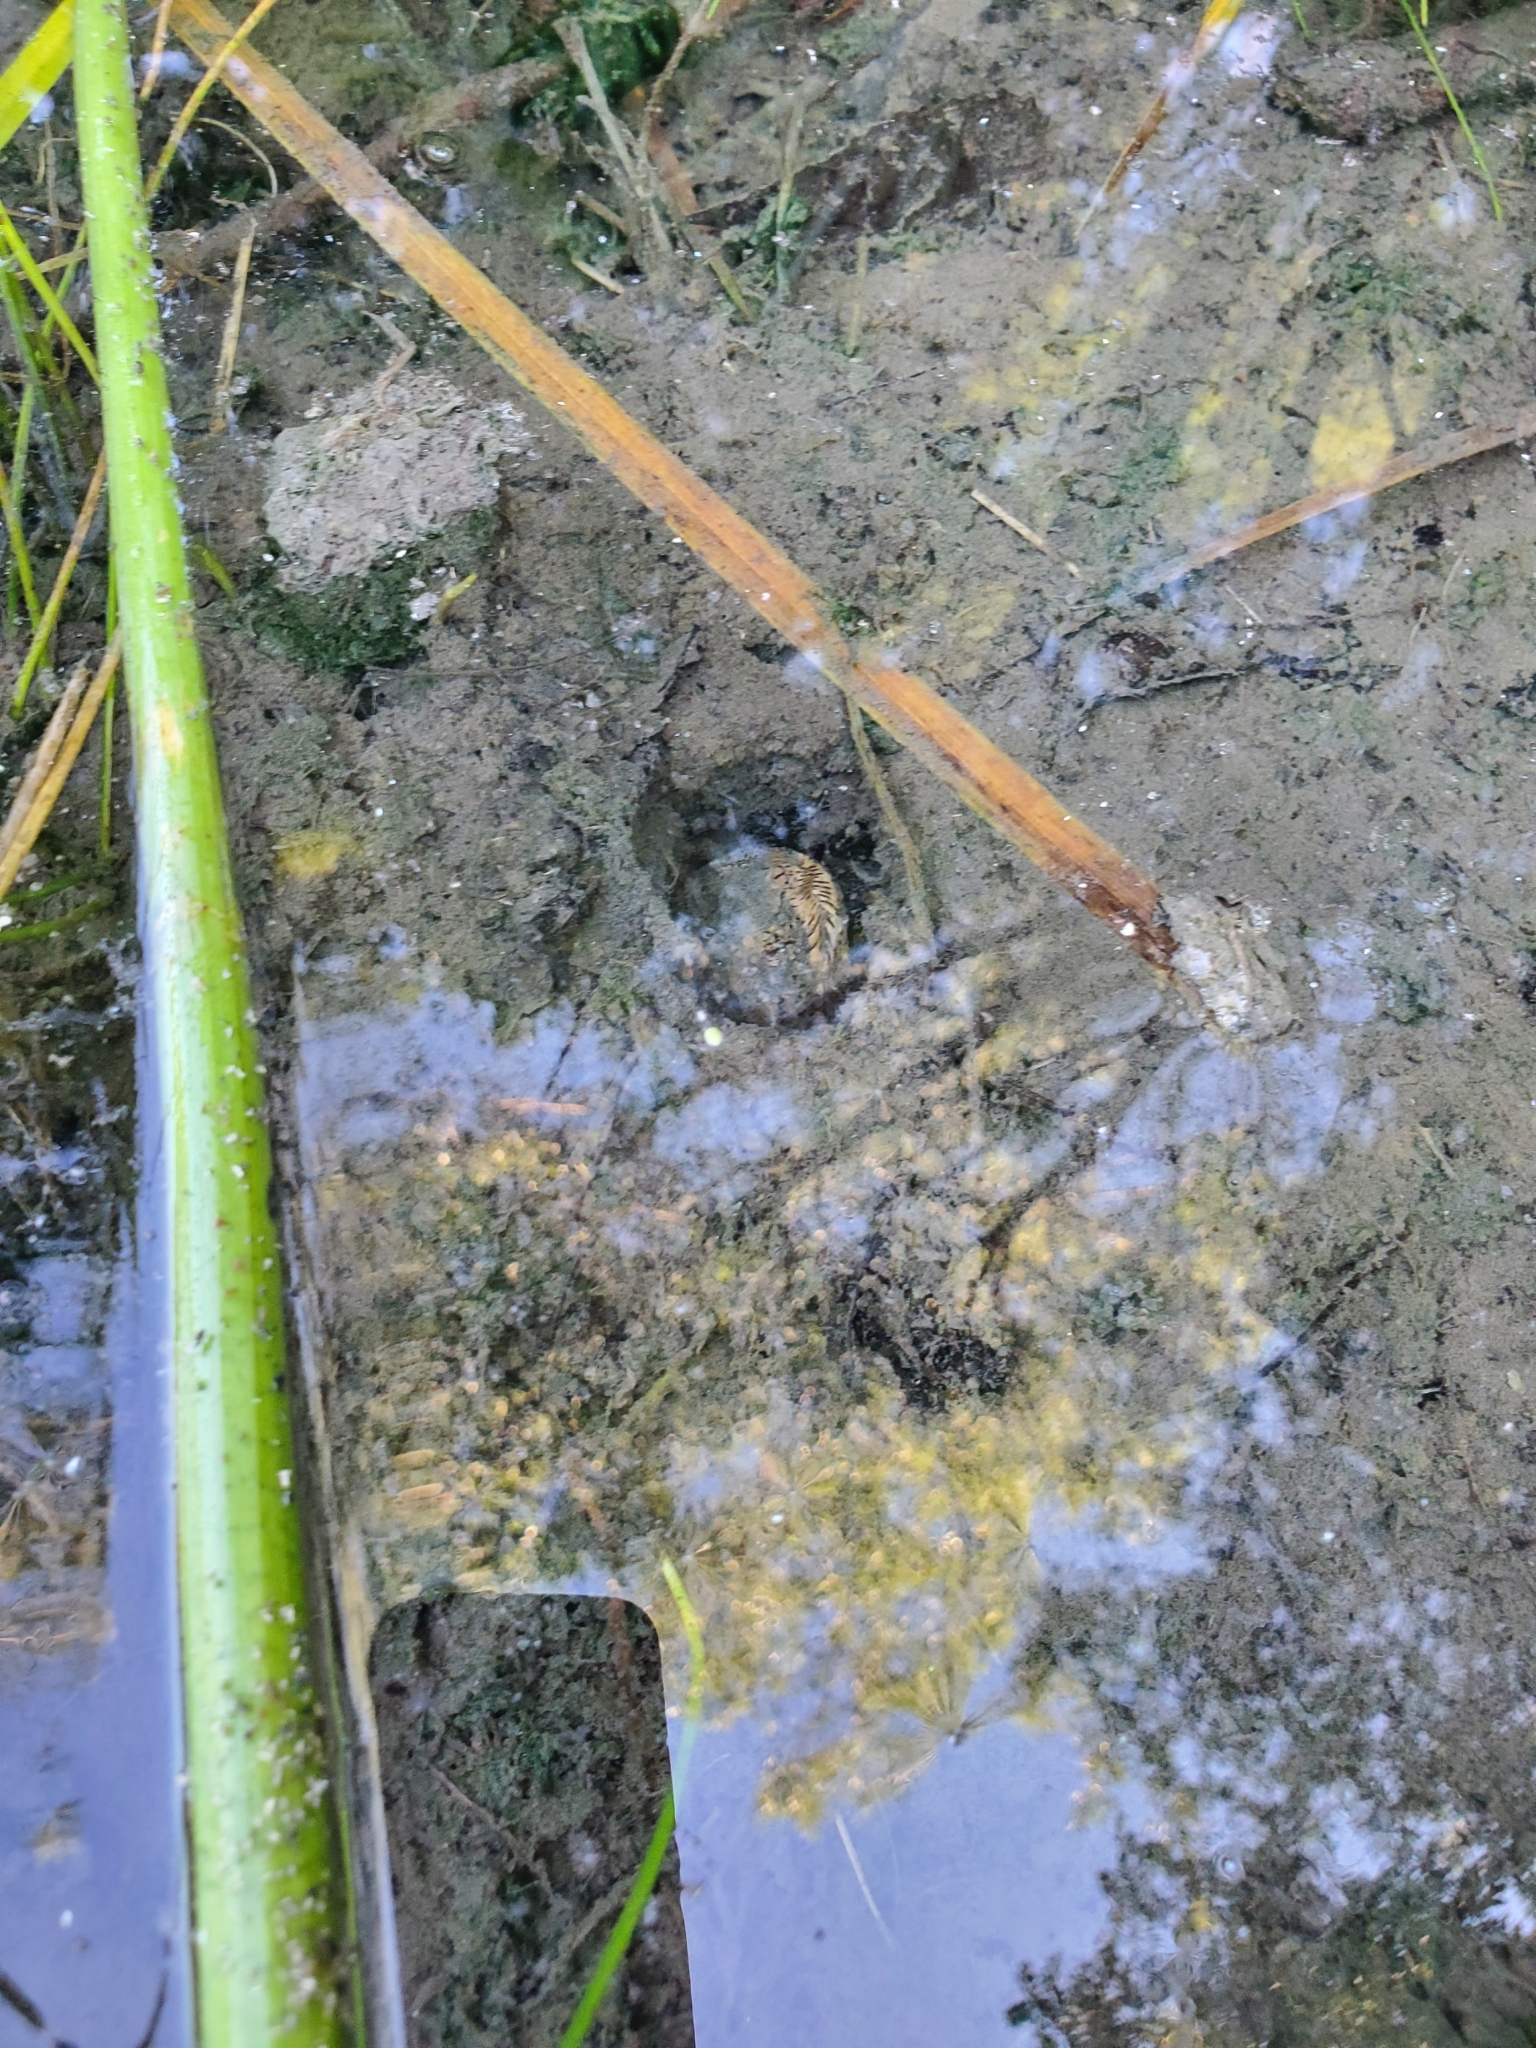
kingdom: Animalia
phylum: Chordata
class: Testudines
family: Chelydridae
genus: Chelydra
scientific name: Chelydra serpentina
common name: Common snapping turtle
